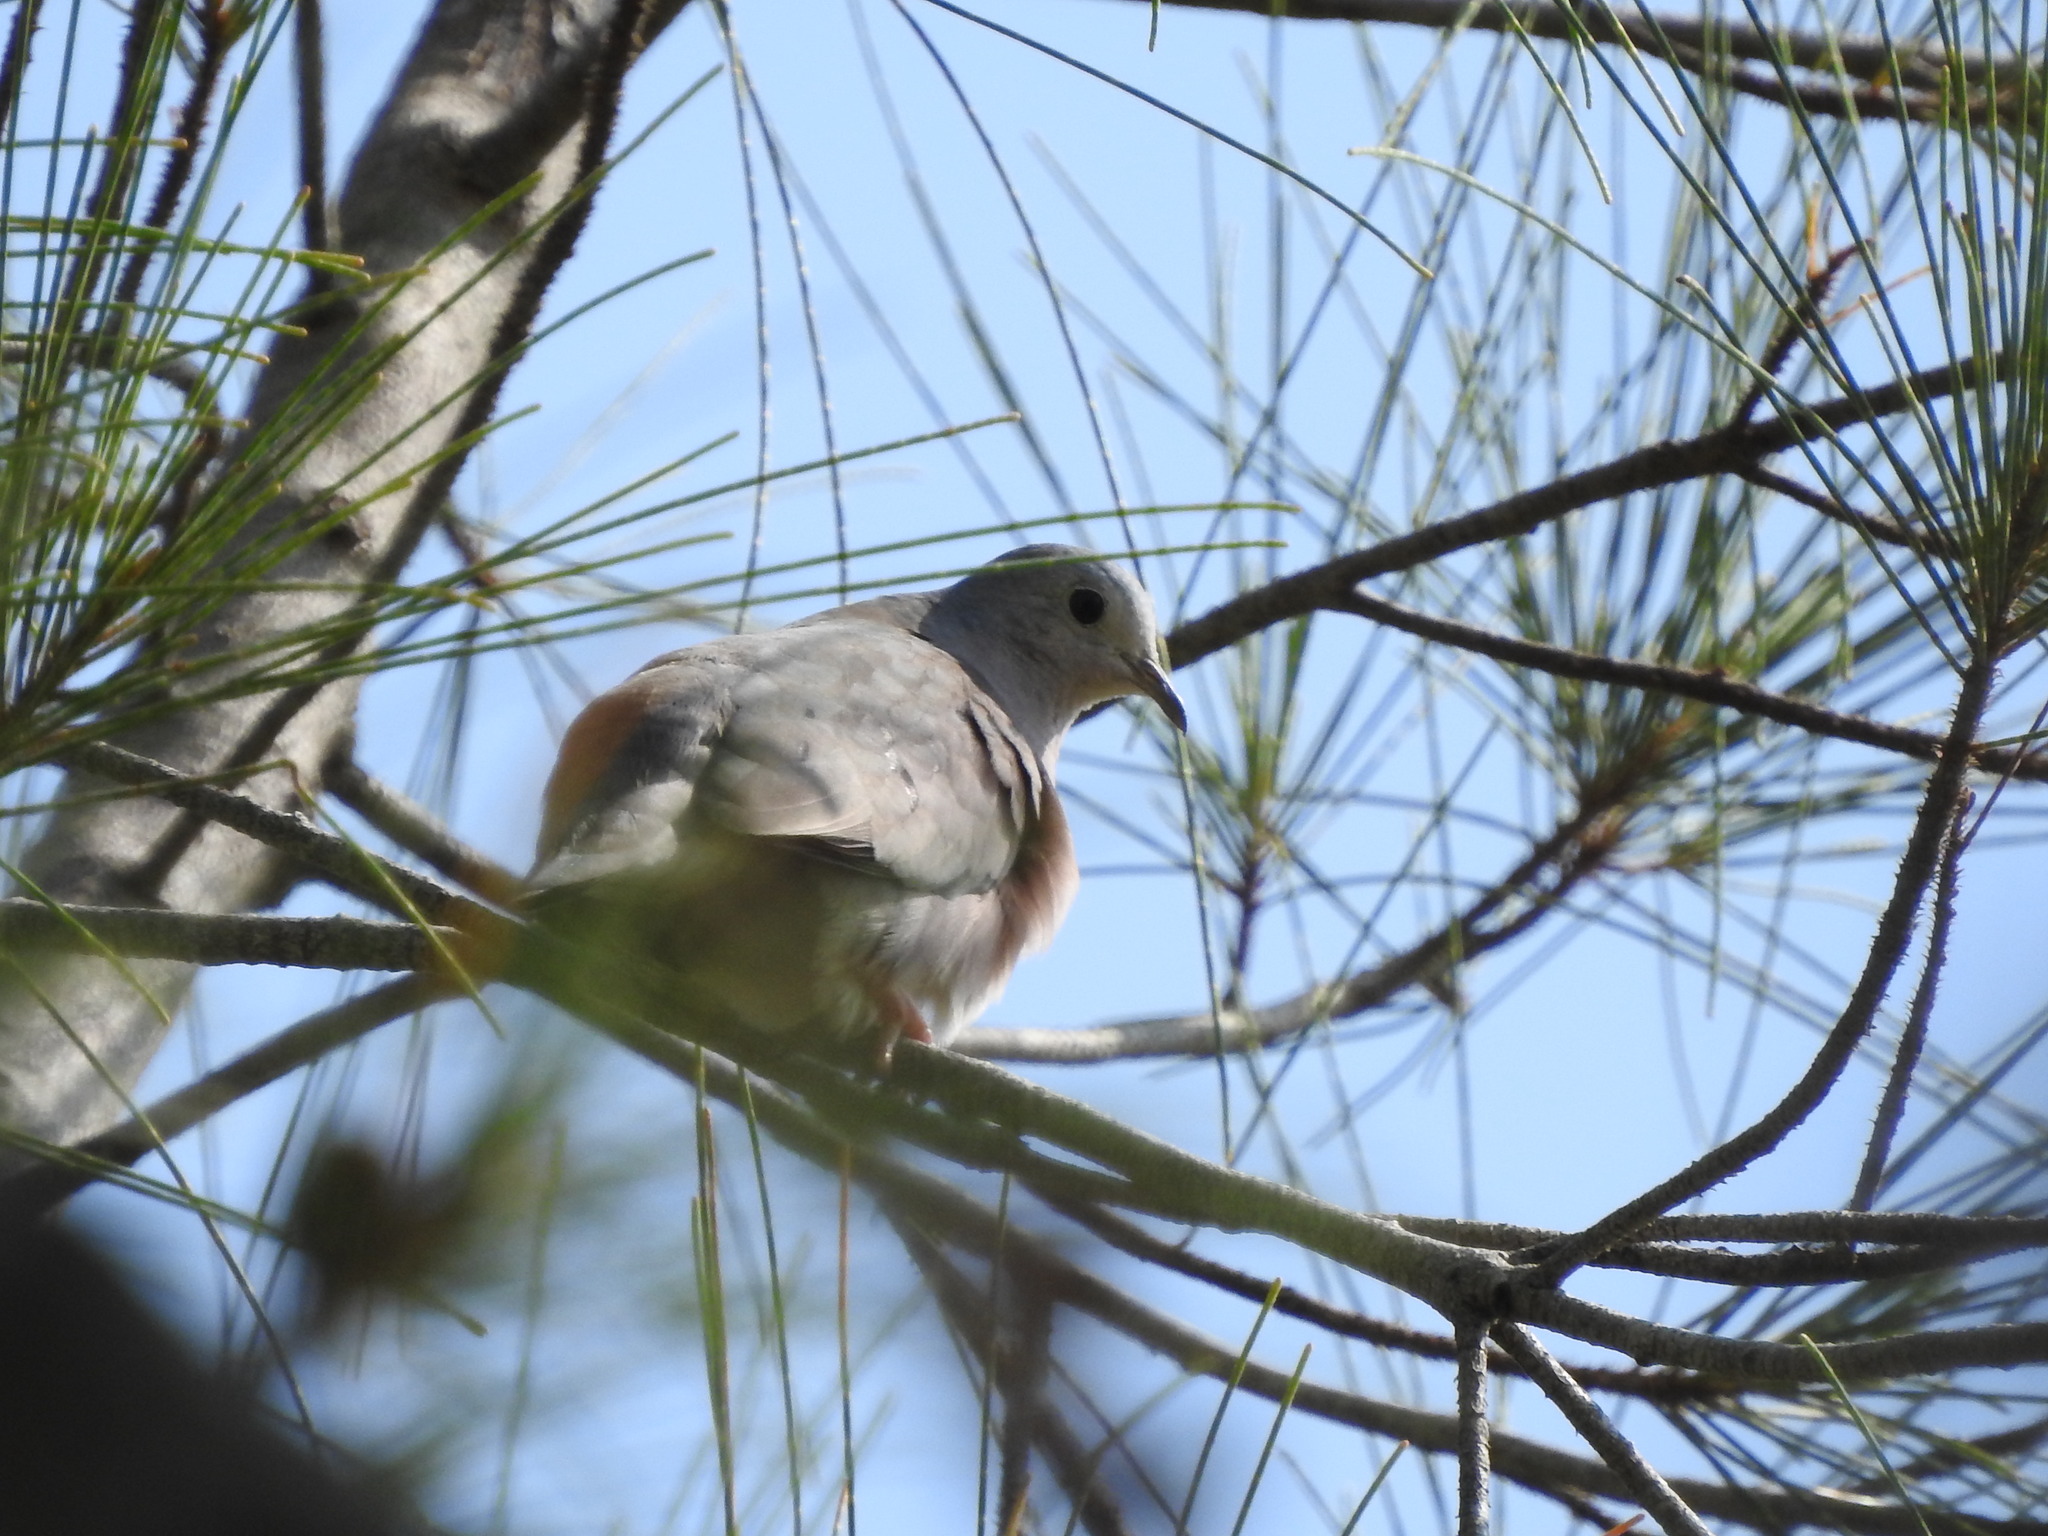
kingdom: Animalia
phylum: Chordata
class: Aves
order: Columbiformes
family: Columbidae
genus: Columbina
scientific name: Columbina minuta
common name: Plain-breasted ground dove
